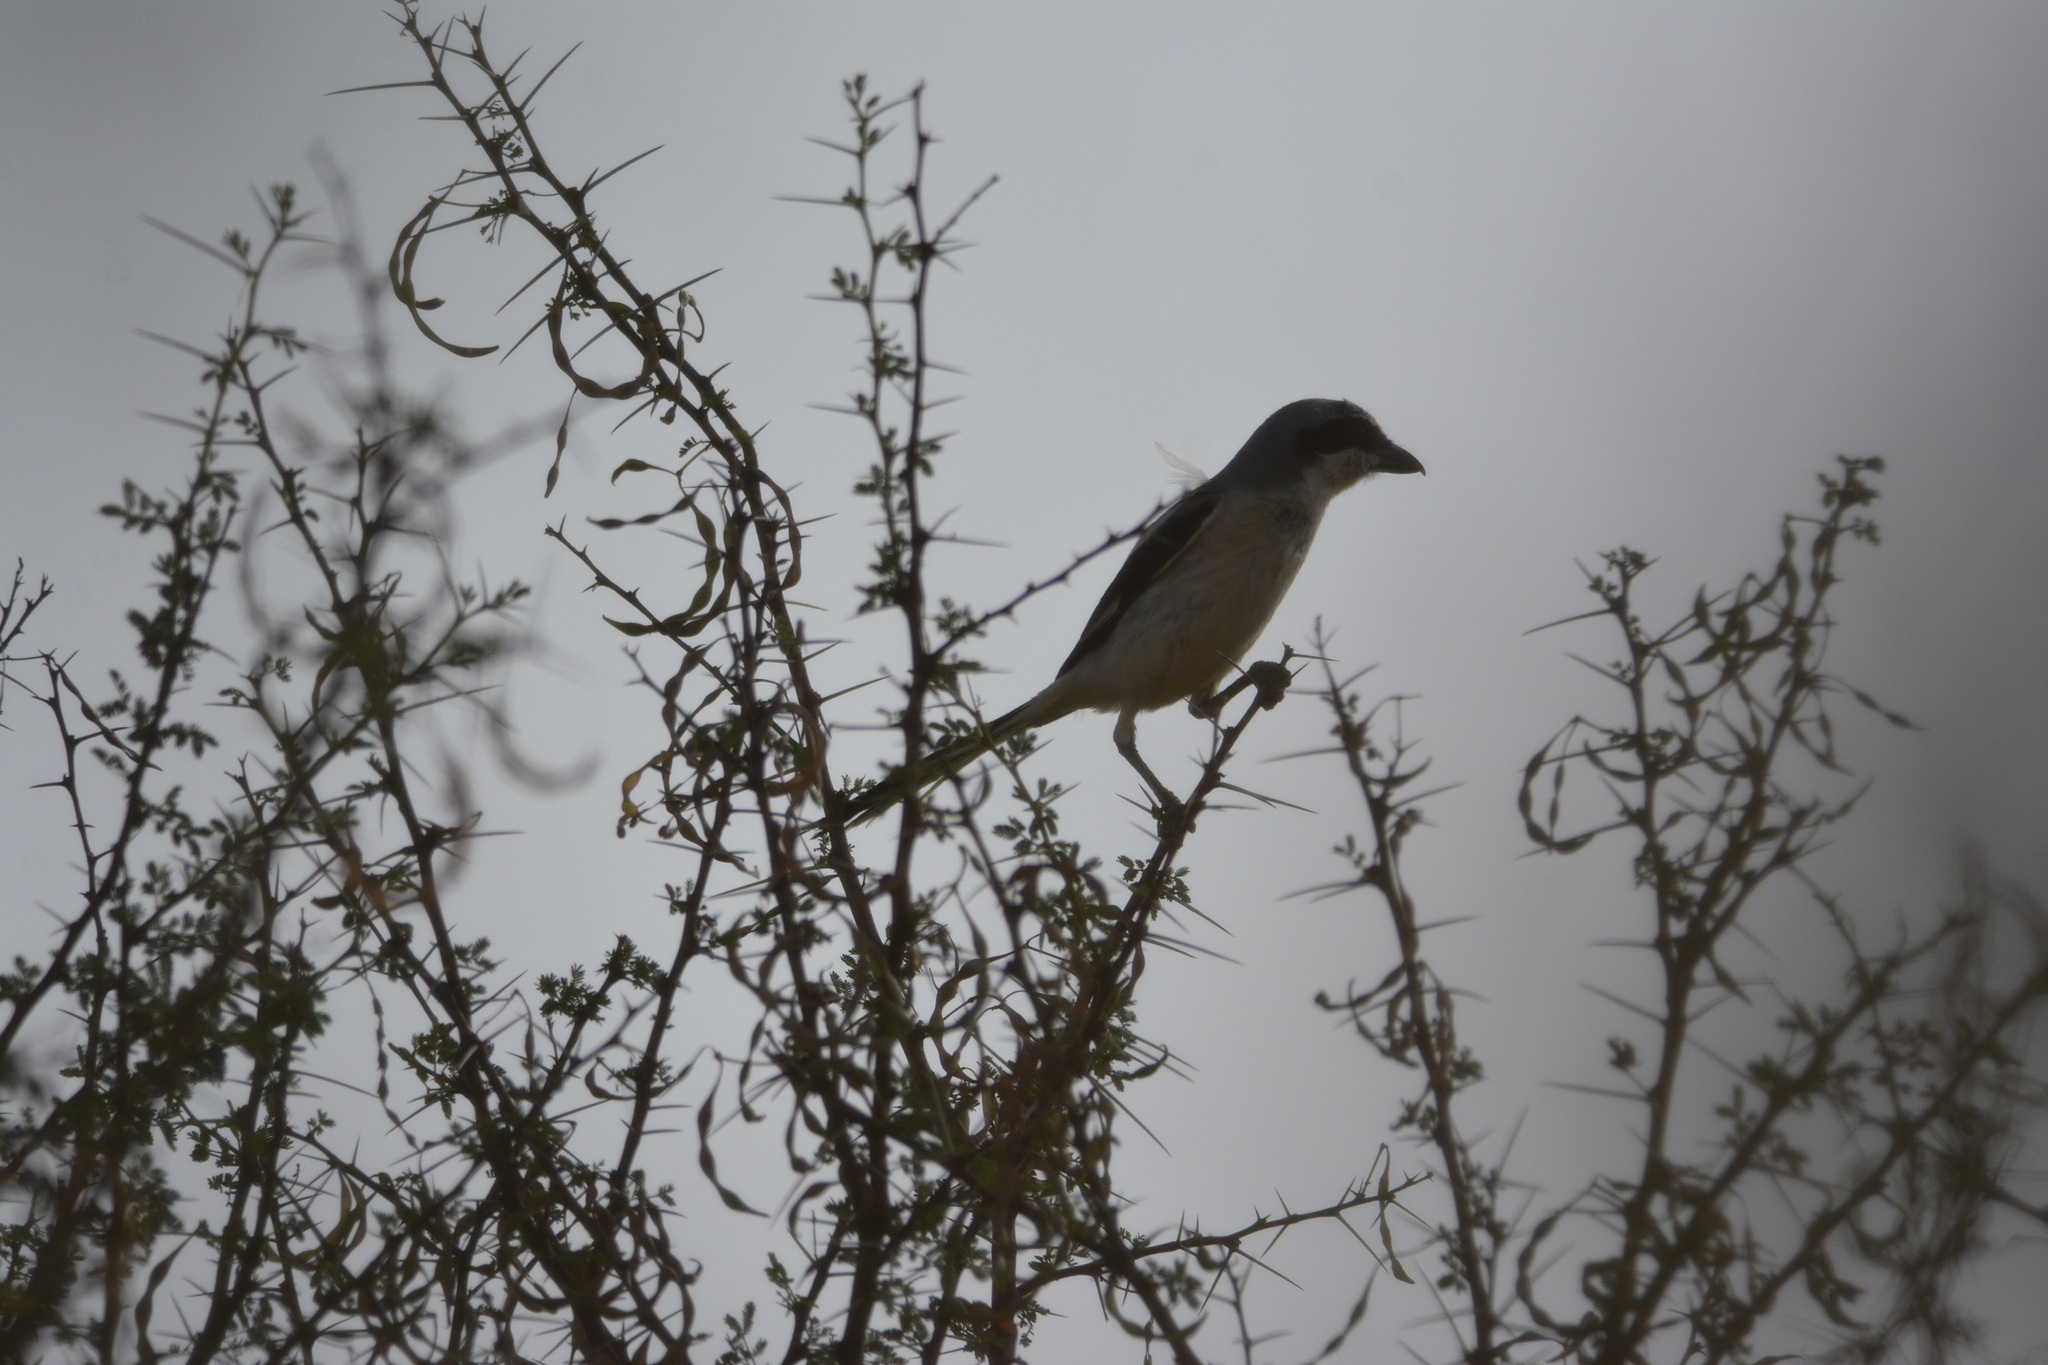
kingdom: Animalia
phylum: Chordata
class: Aves
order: Passeriformes
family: Laniidae
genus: Lanius
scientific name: Lanius excubitor
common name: Great grey shrike
